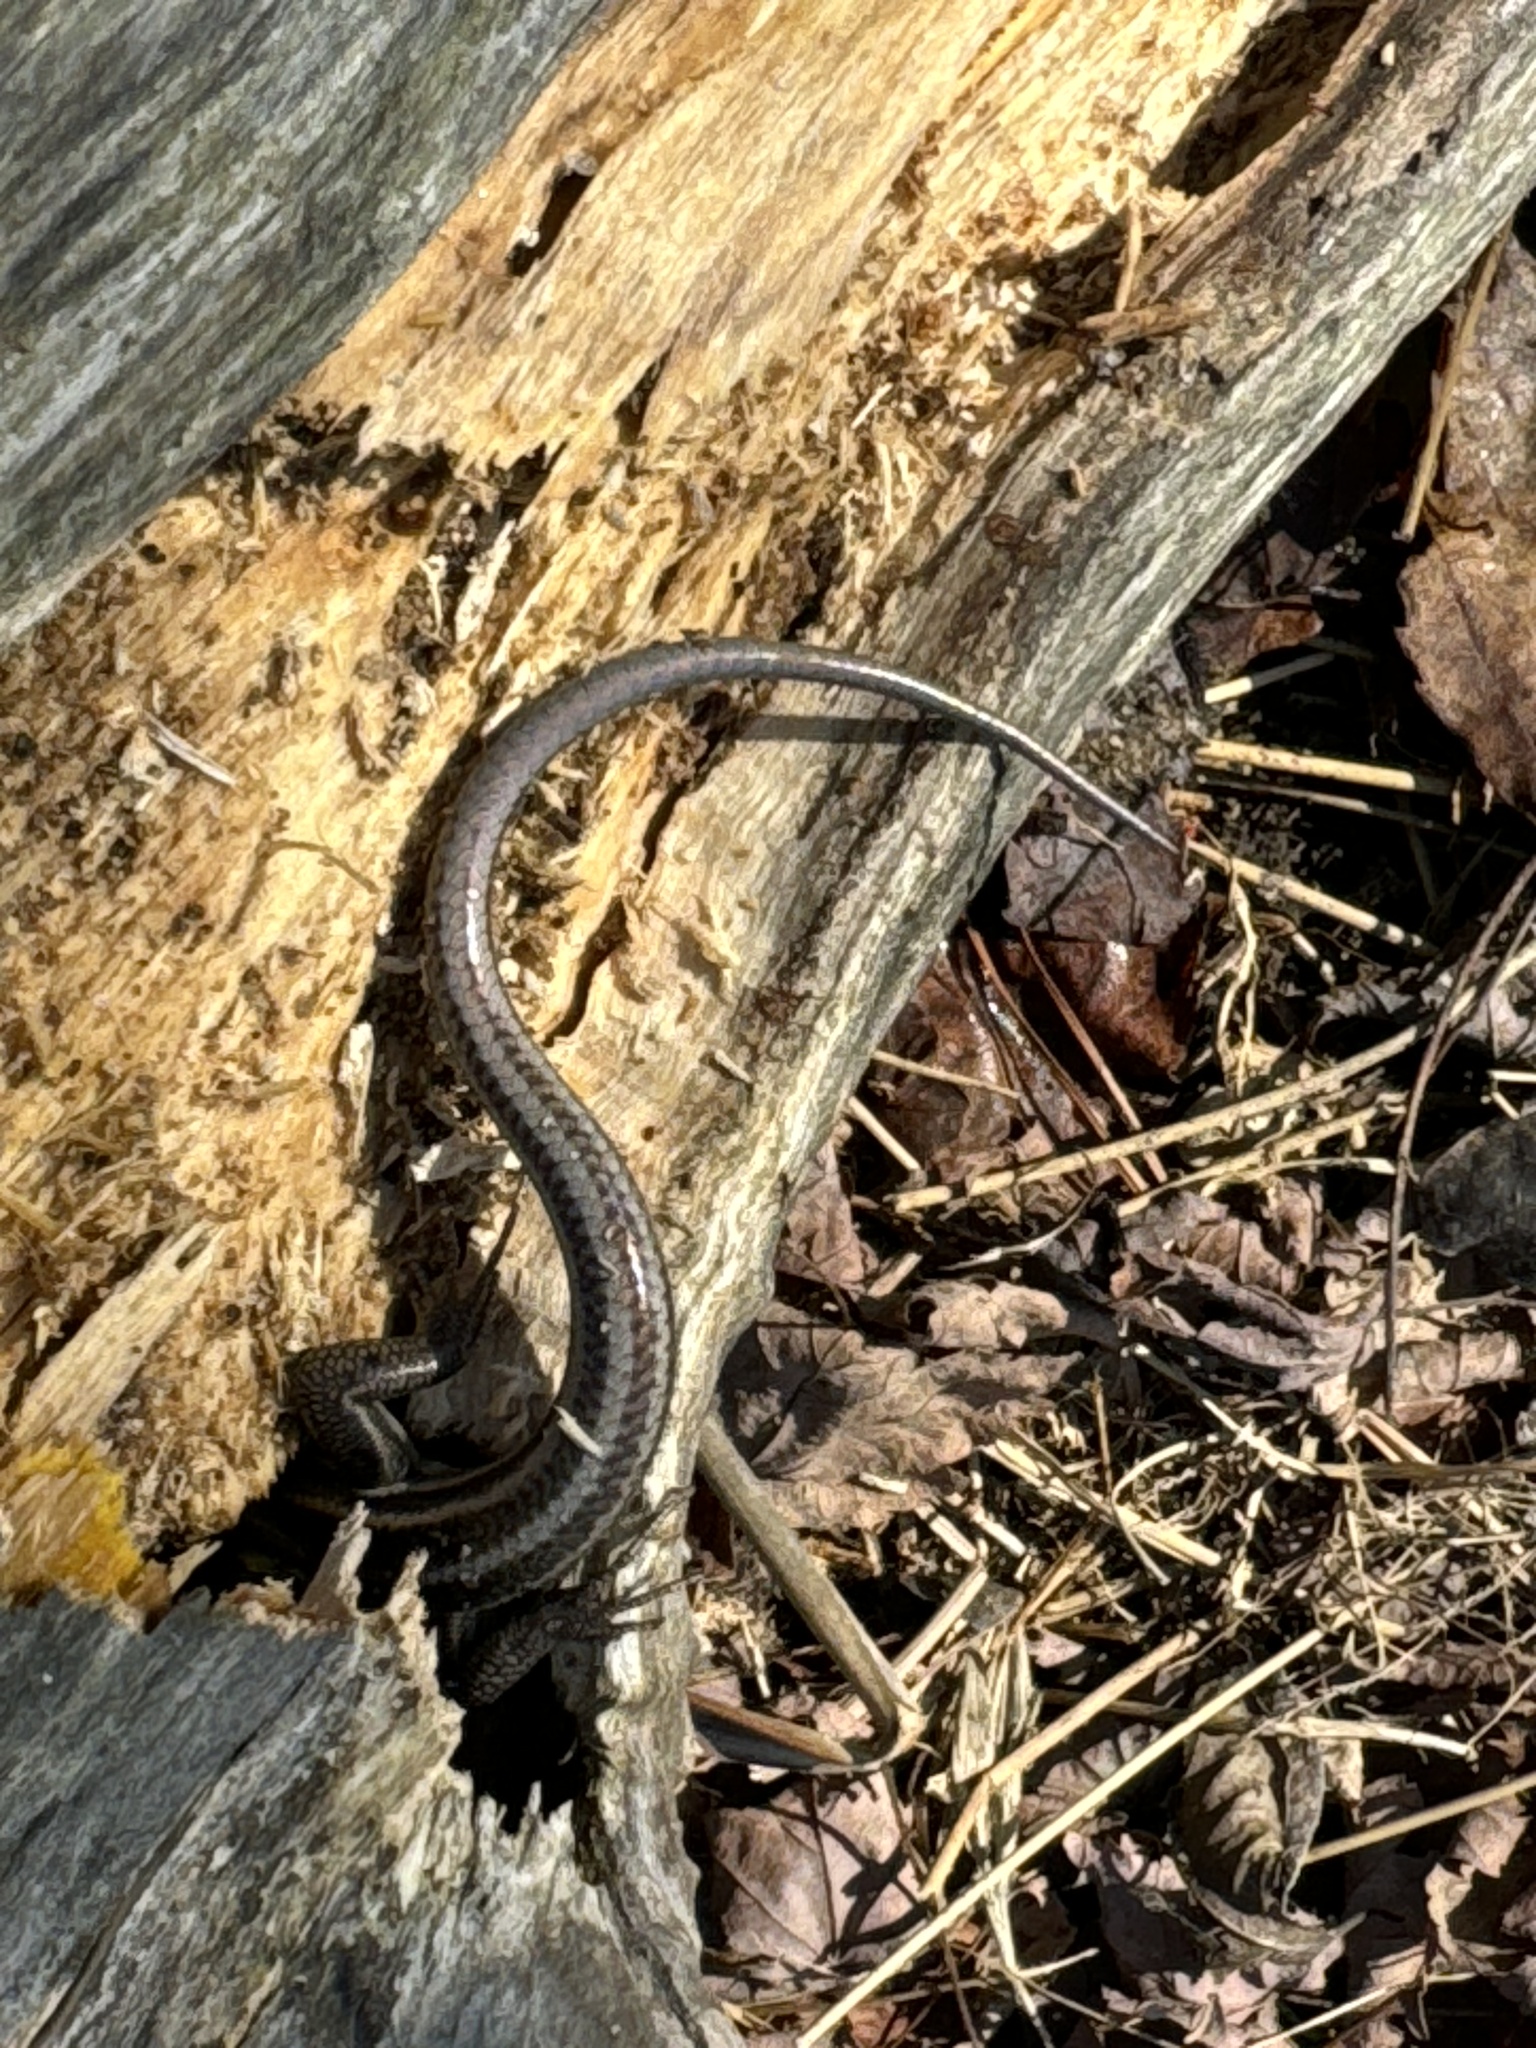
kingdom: Animalia
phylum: Chordata
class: Squamata
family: Scincidae
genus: Plestiodon
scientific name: Plestiodon fasciatus
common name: Five-lined skink
